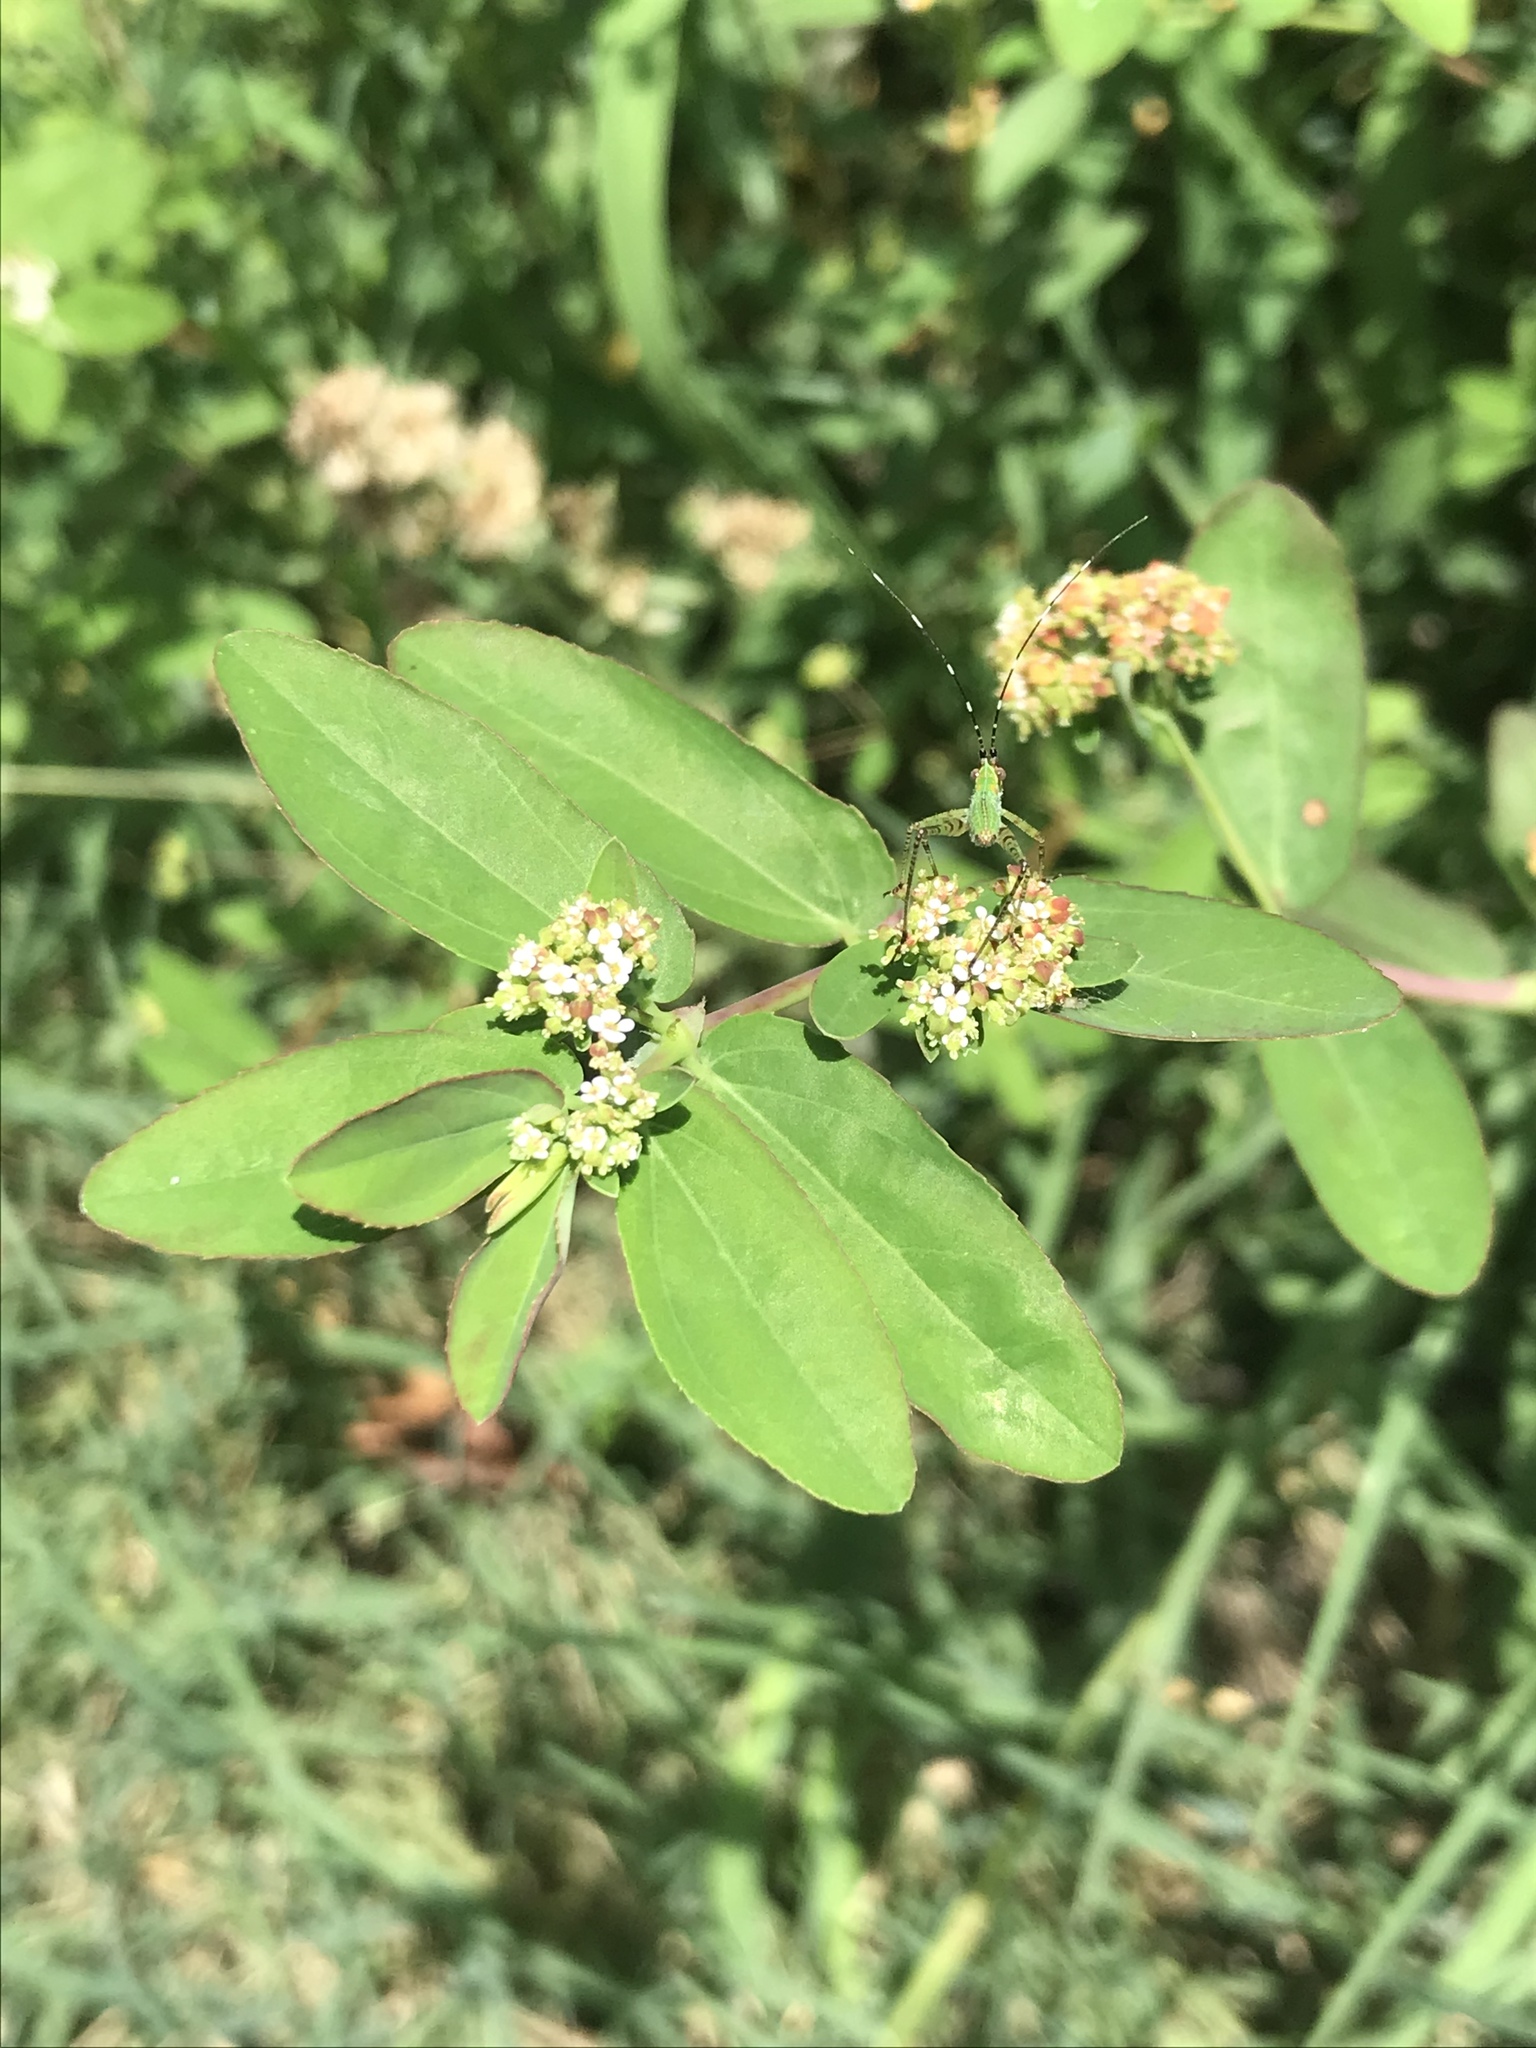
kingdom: Plantae
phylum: Tracheophyta
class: Magnoliopsida
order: Malpighiales
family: Euphorbiaceae
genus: Euphorbia
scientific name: Euphorbia hypericifolia
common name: Graceful sandmat
